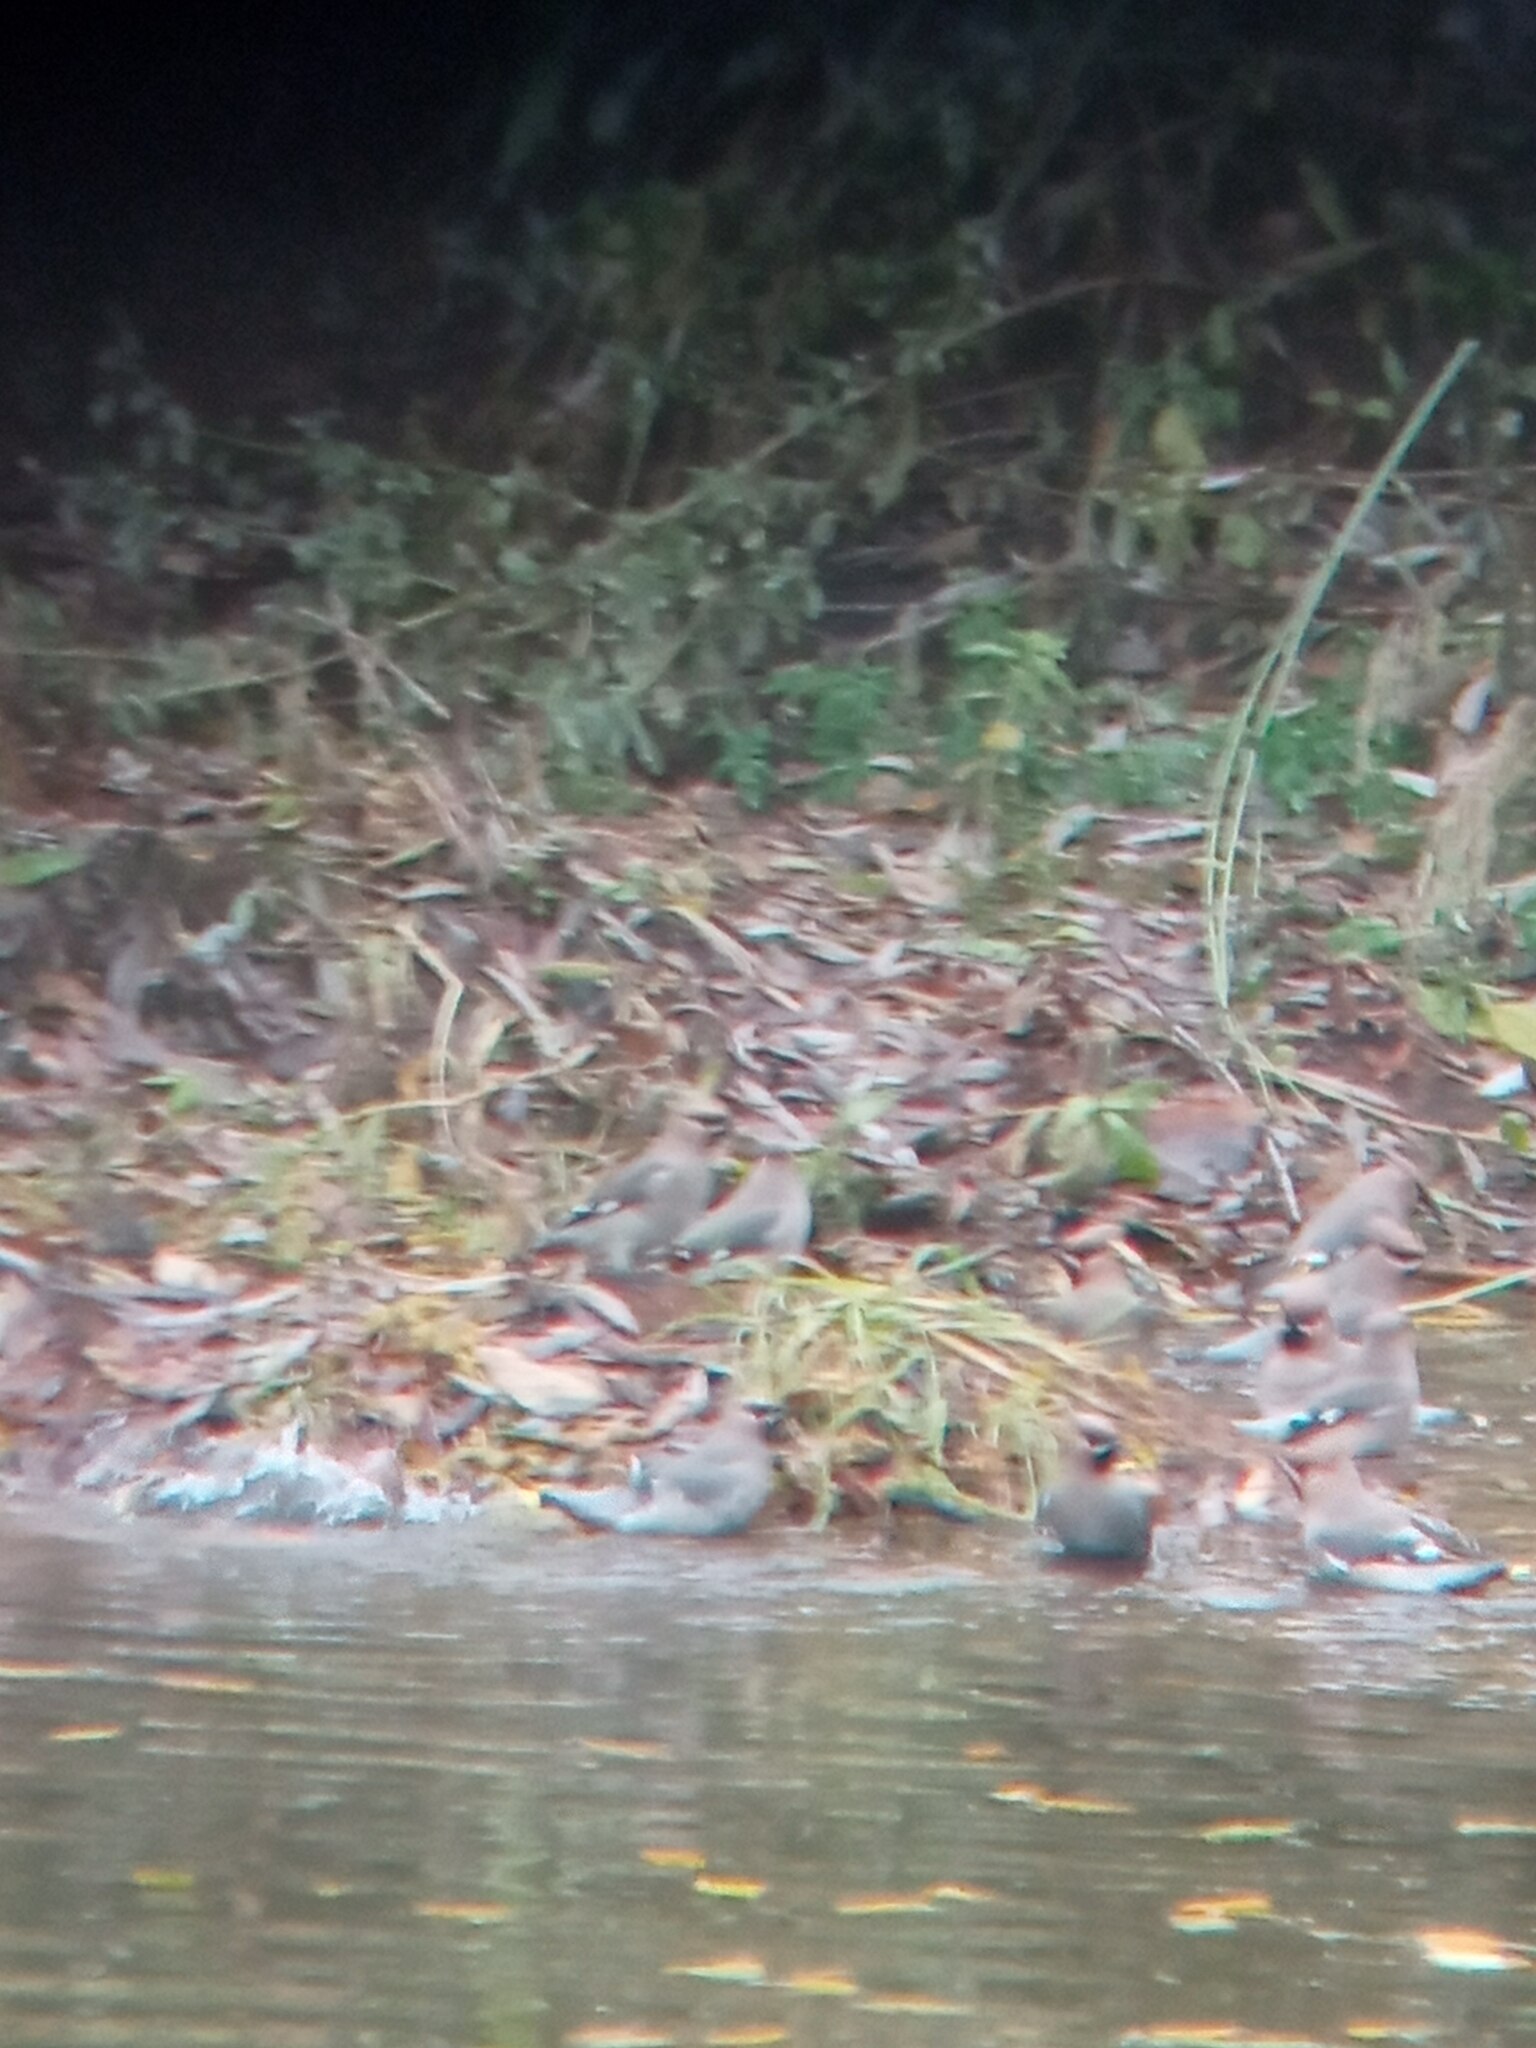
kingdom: Animalia
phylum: Chordata
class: Aves
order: Passeriformes
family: Bombycillidae
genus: Bombycilla
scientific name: Bombycilla garrulus
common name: Bohemian waxwing
